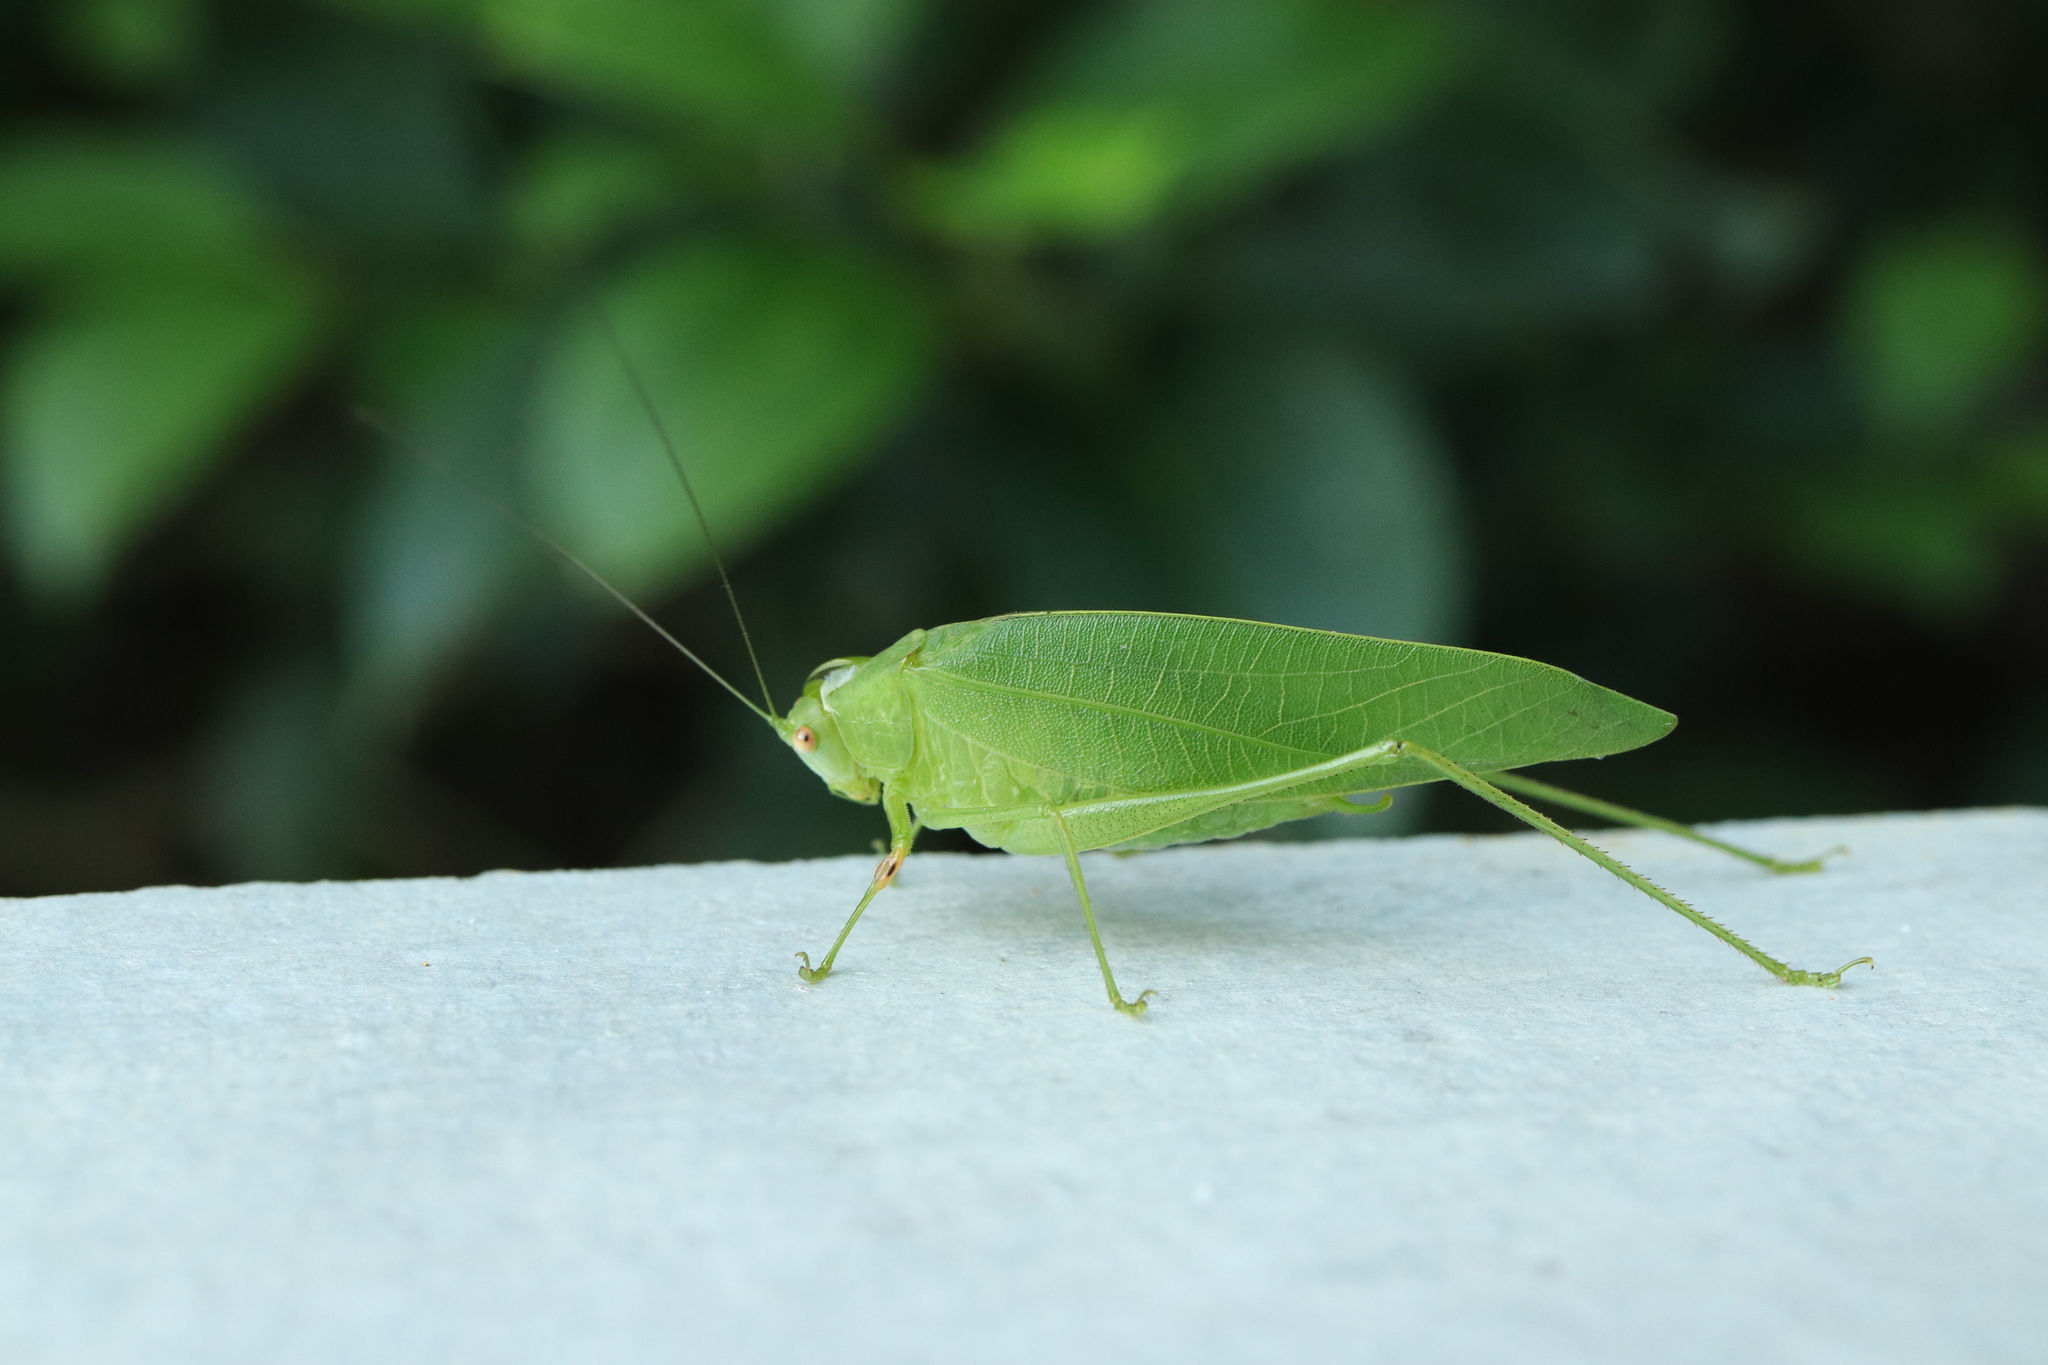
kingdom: Animalia
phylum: Arthropoda
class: Insecta
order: Orthoptera
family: Tettigoniidae
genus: Phaulula
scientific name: Phaulula macilenta
